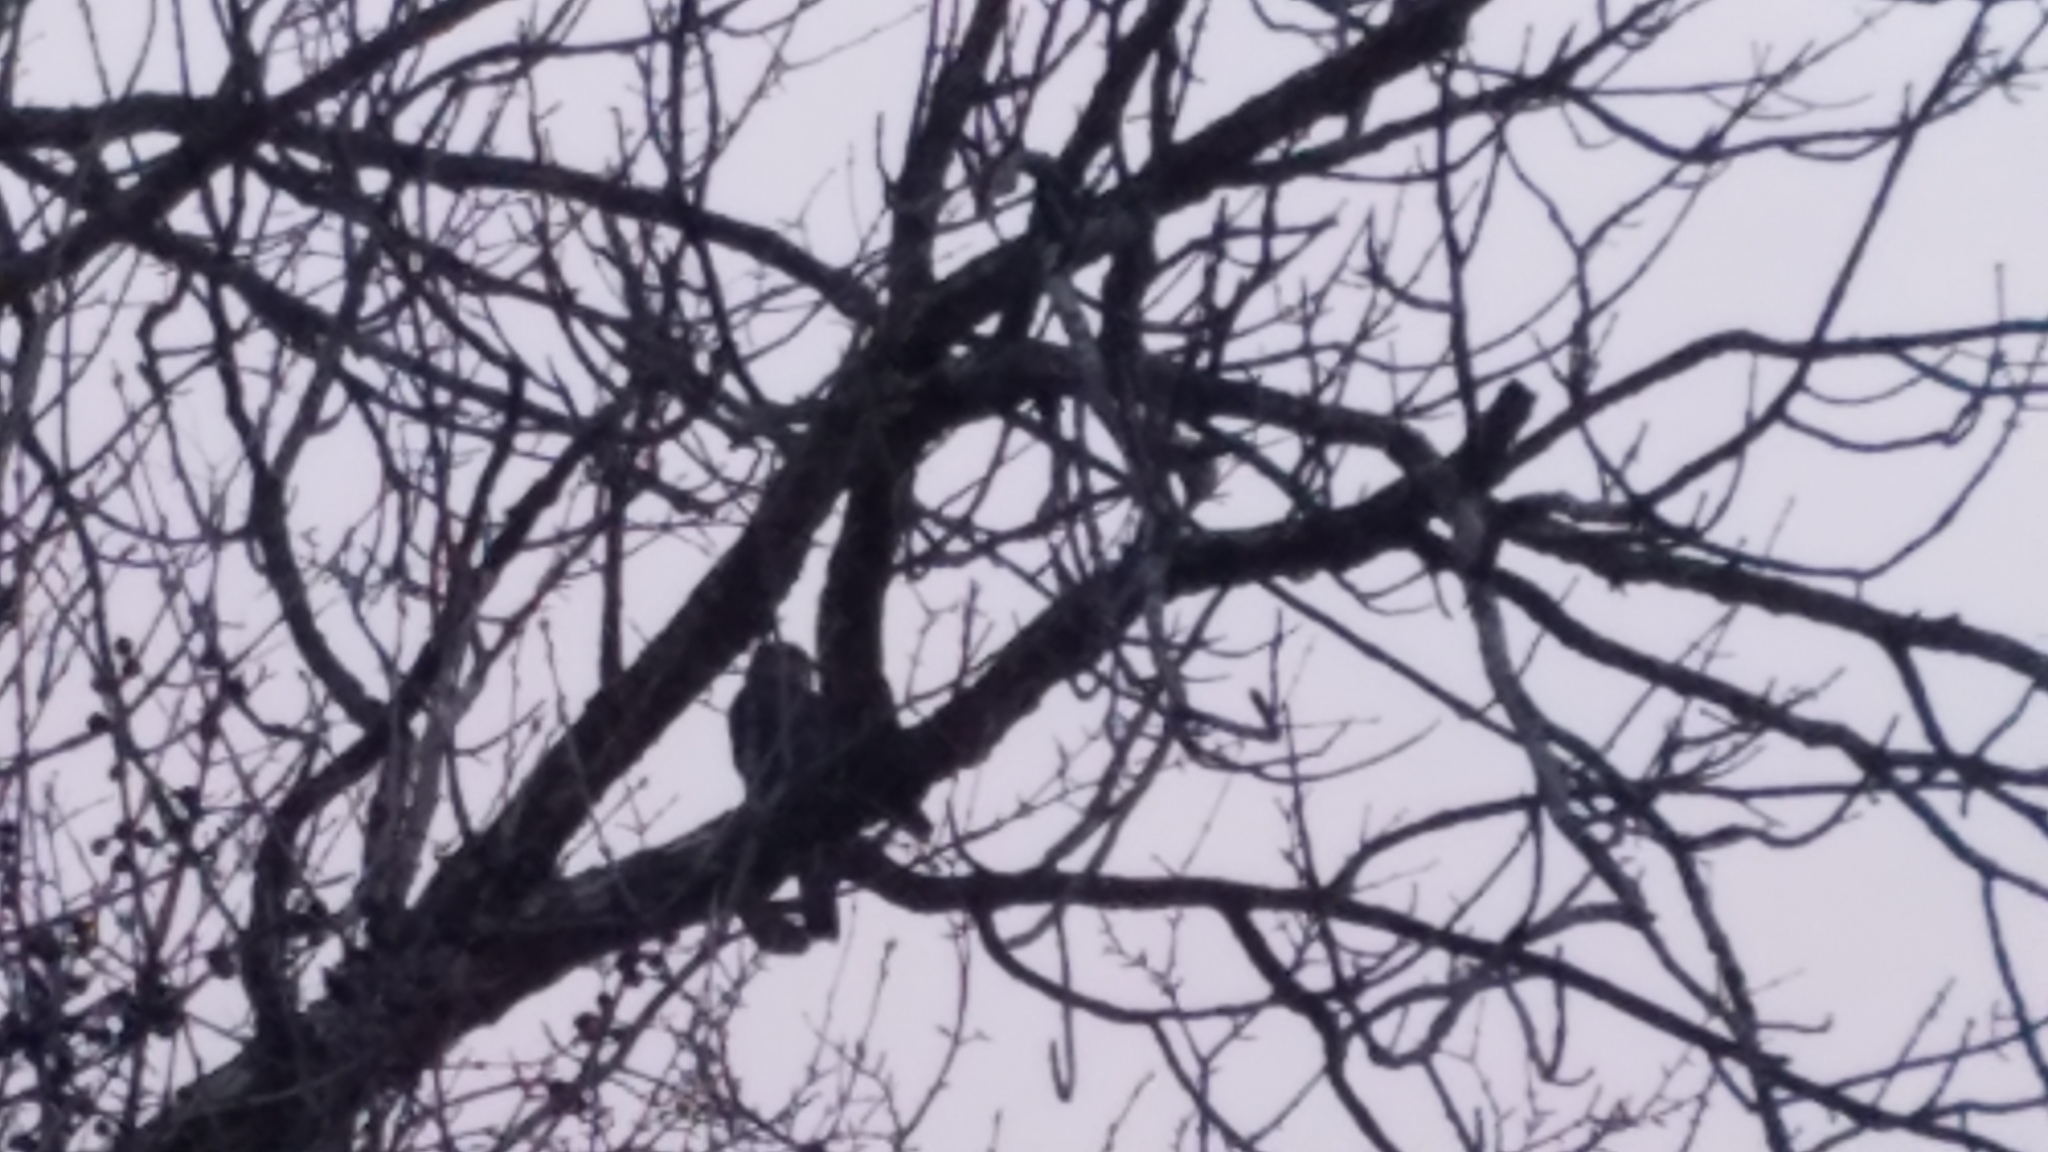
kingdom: Animalia
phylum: Chordata
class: Aves
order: Accipitriformes
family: Accipitridae
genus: Accipiter
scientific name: Accipiter cooperii
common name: Cooper's hawk
